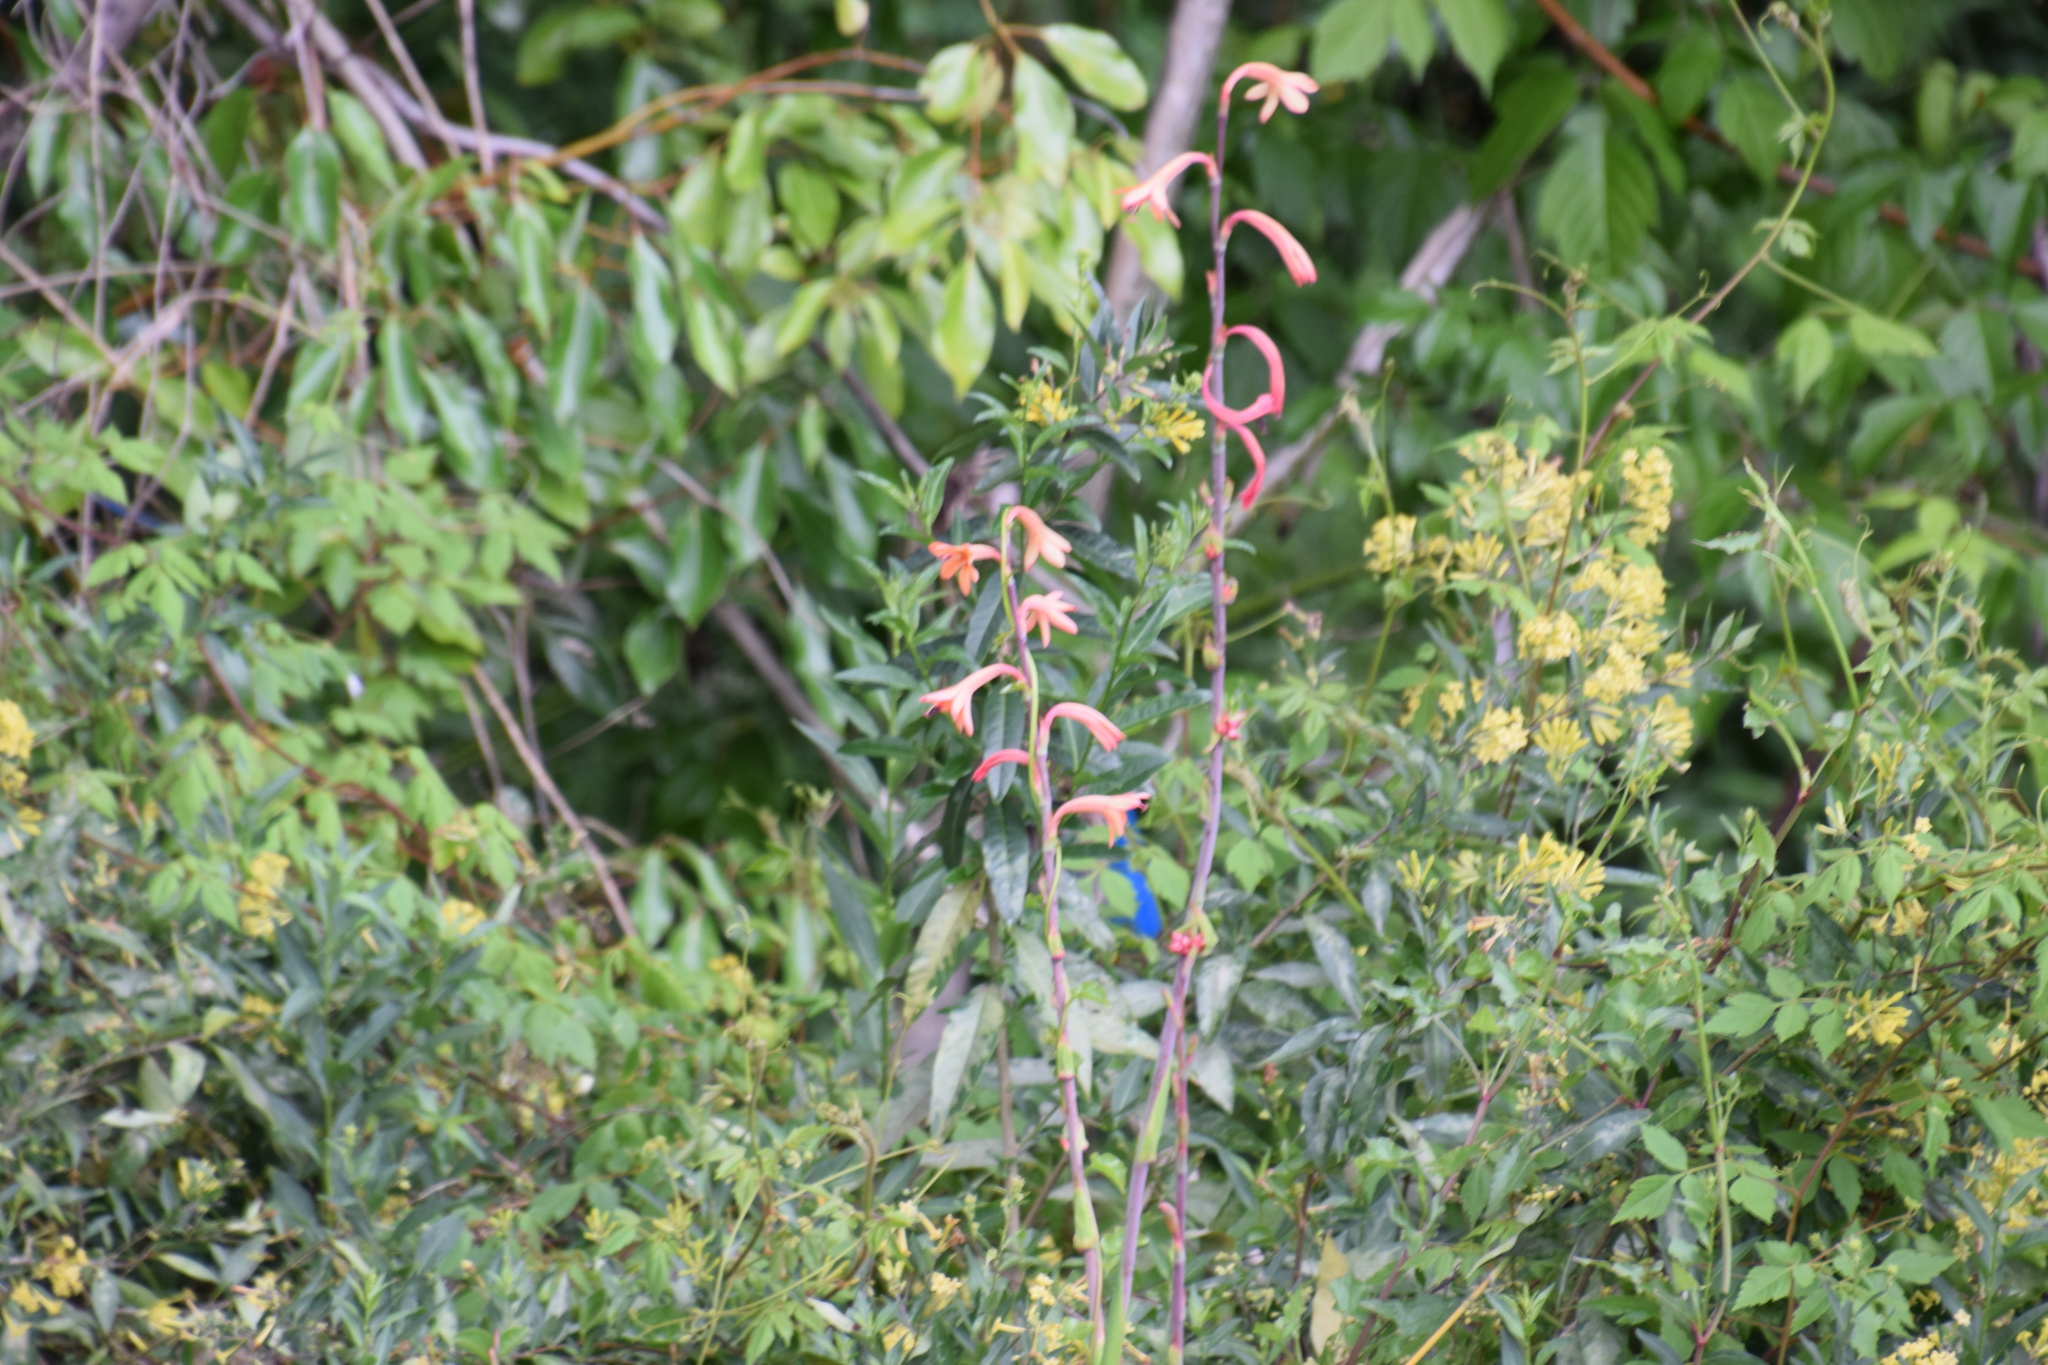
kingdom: Plantae
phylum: Tracheophyta
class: Liliopsida
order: Asparagales
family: Iridaceae
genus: Watsonia
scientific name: Watsonia meriana
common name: Bulbil bugle-lily
